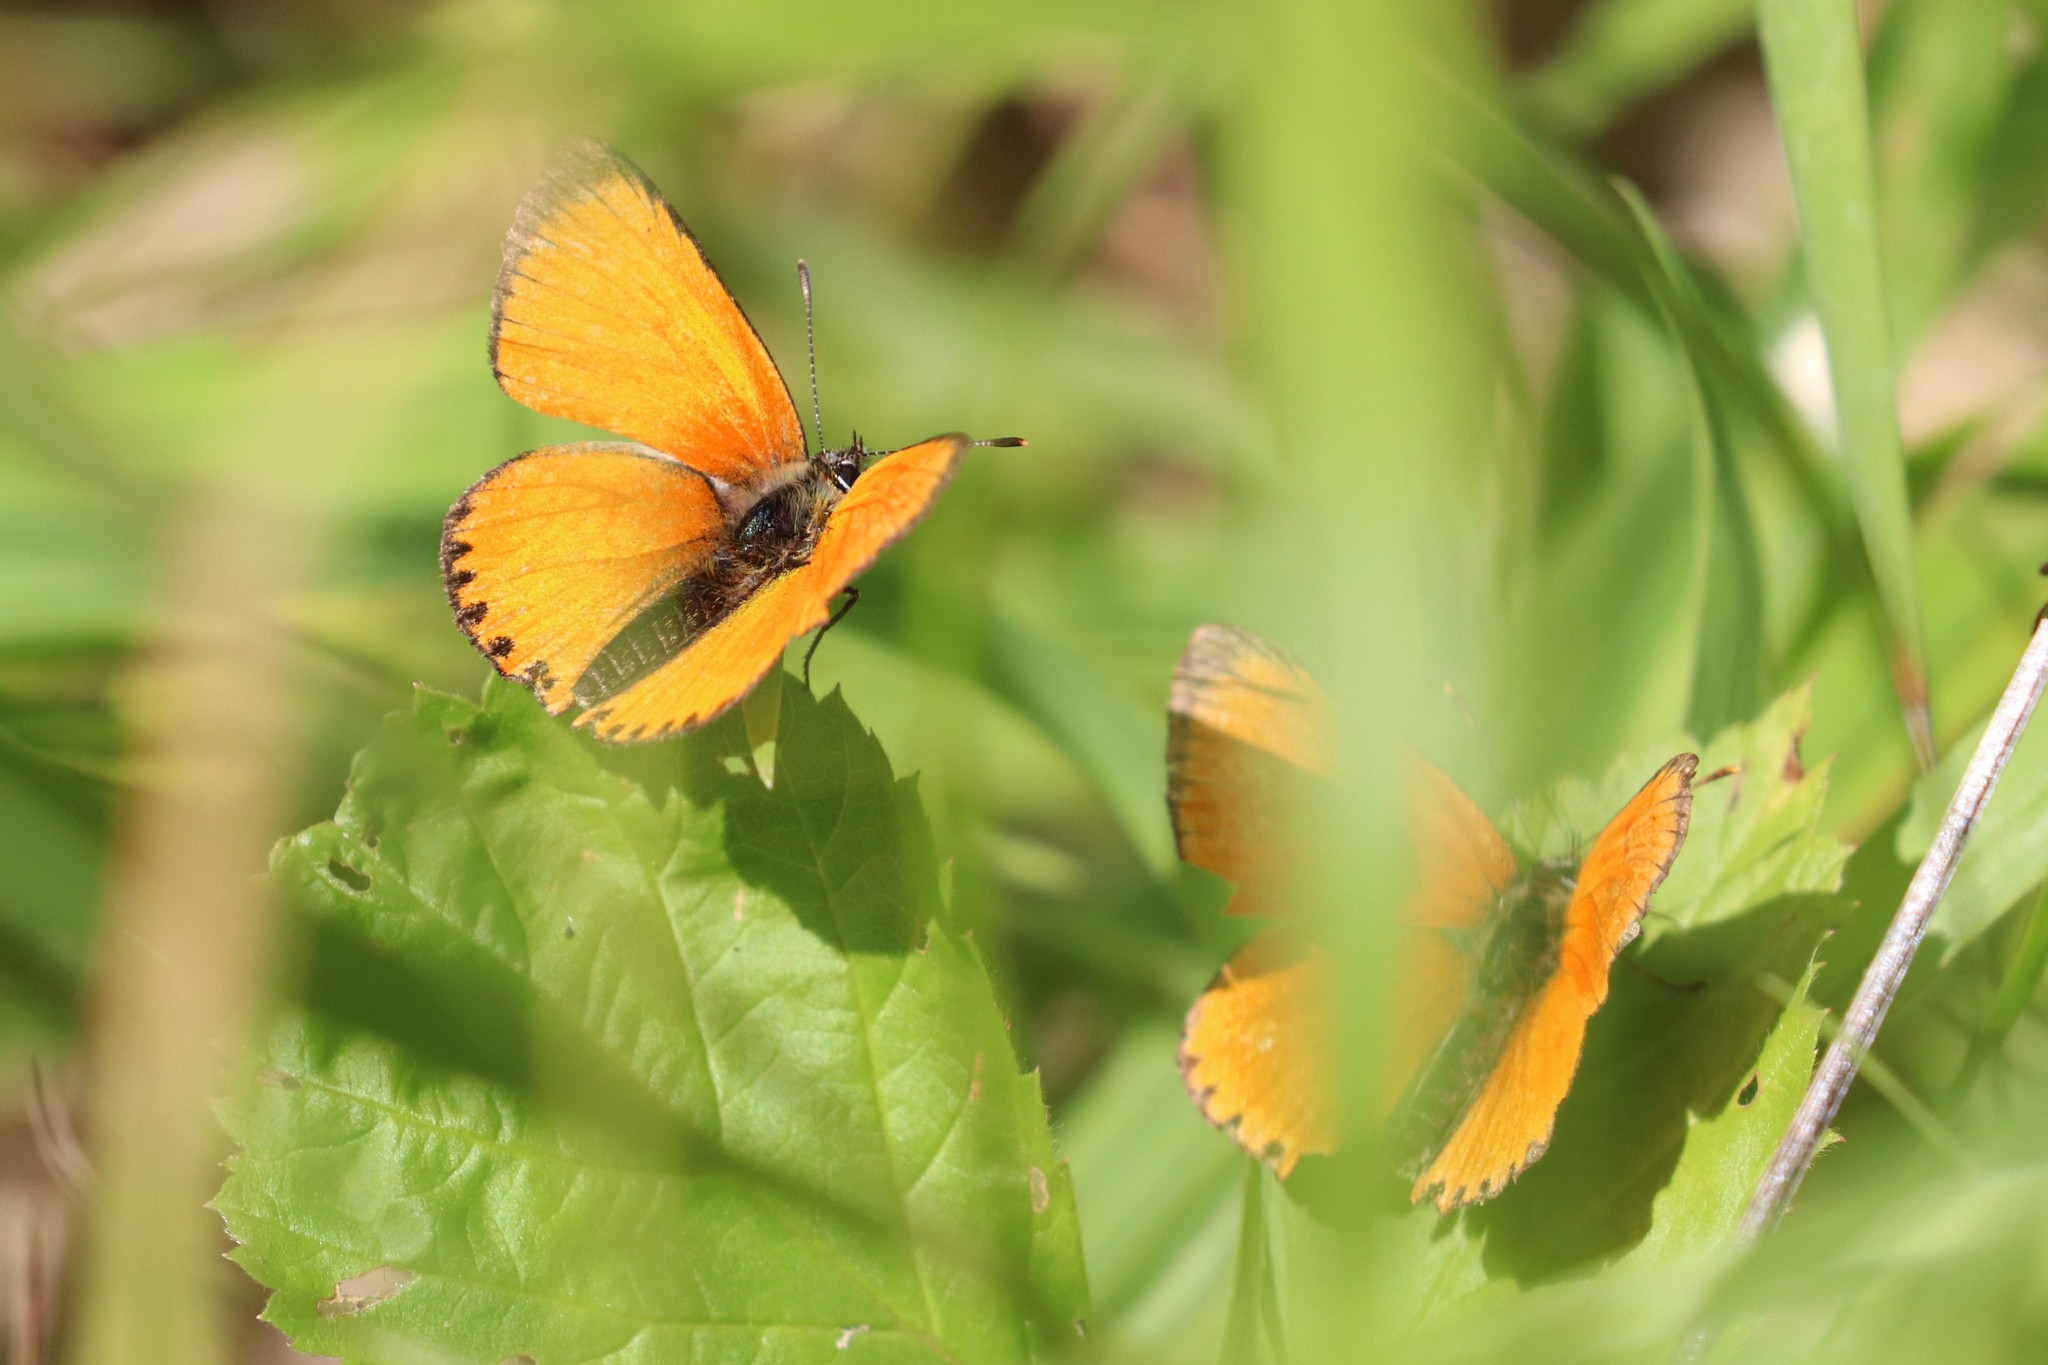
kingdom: Animalia
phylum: Arthropoda
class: Insecta
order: Lepidoptera
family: Lycaenidae
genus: Lycaena
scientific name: Lycaena virgaureae
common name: Scarce copper
